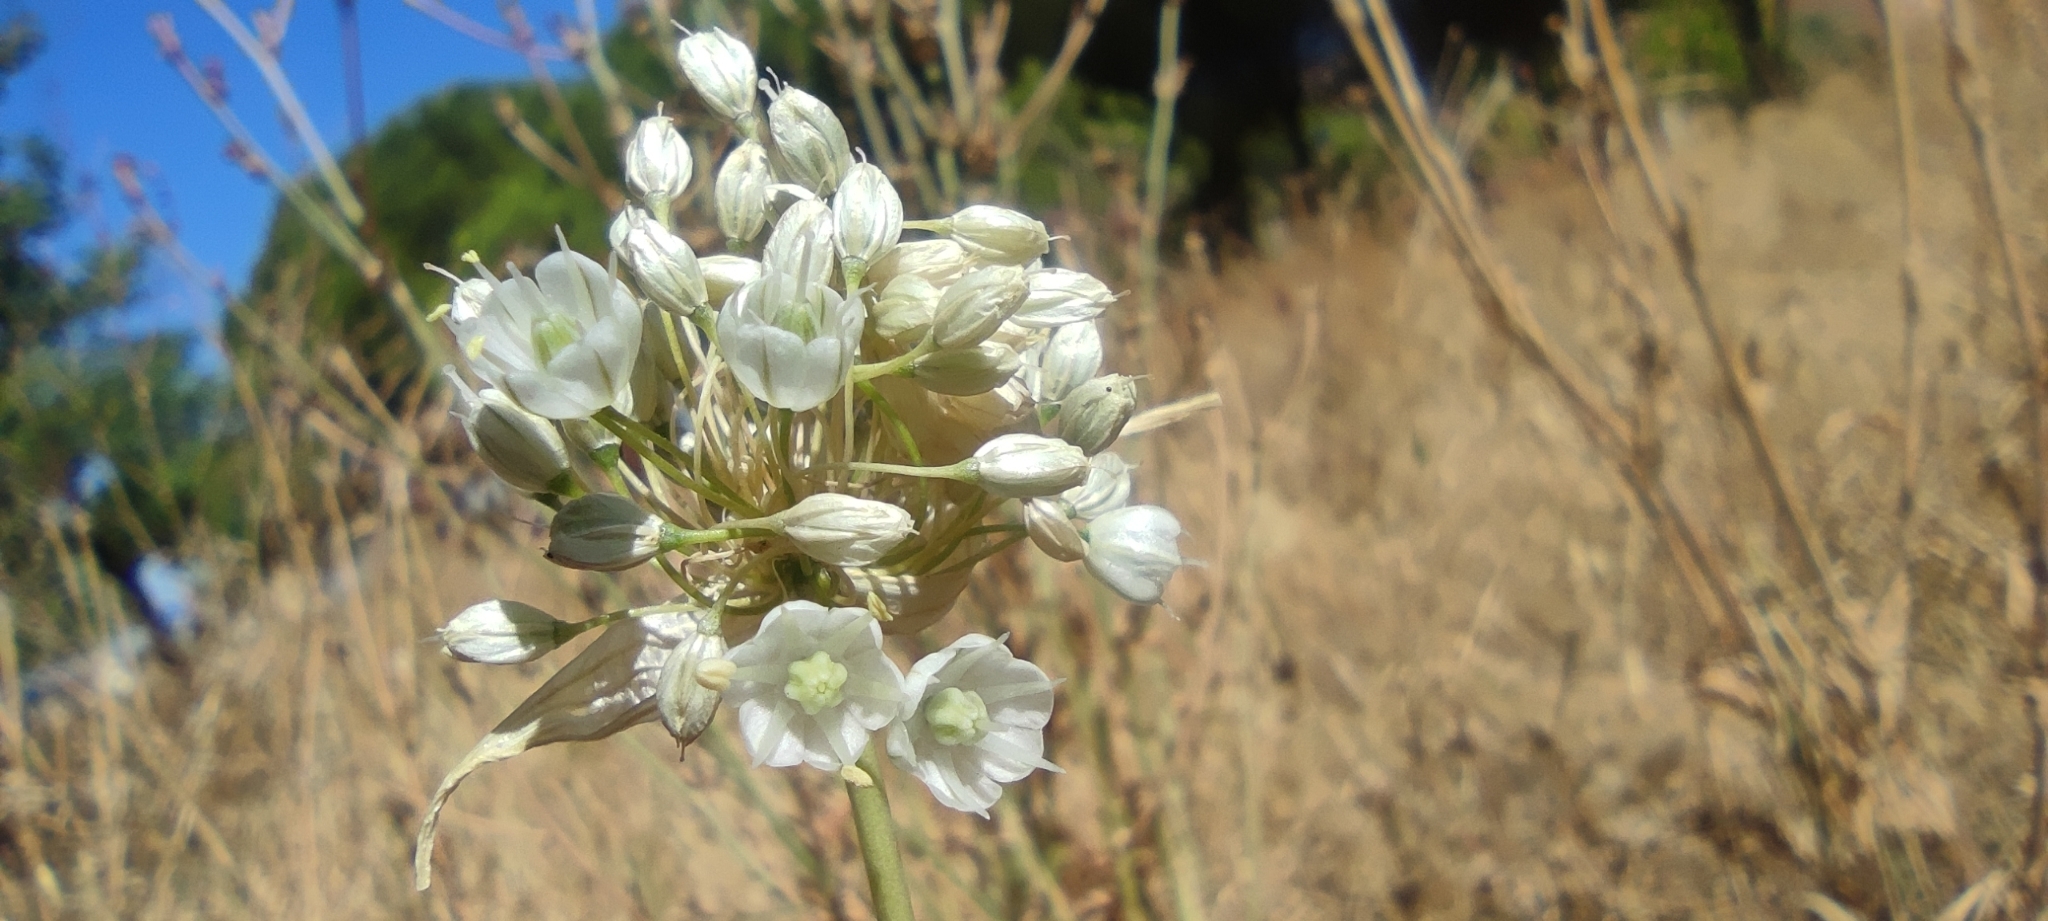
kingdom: Plantae
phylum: Tracheophyta
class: Liliopsida
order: Asparagales
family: Amaryllidaceae
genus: Allium
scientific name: Allium pallens
